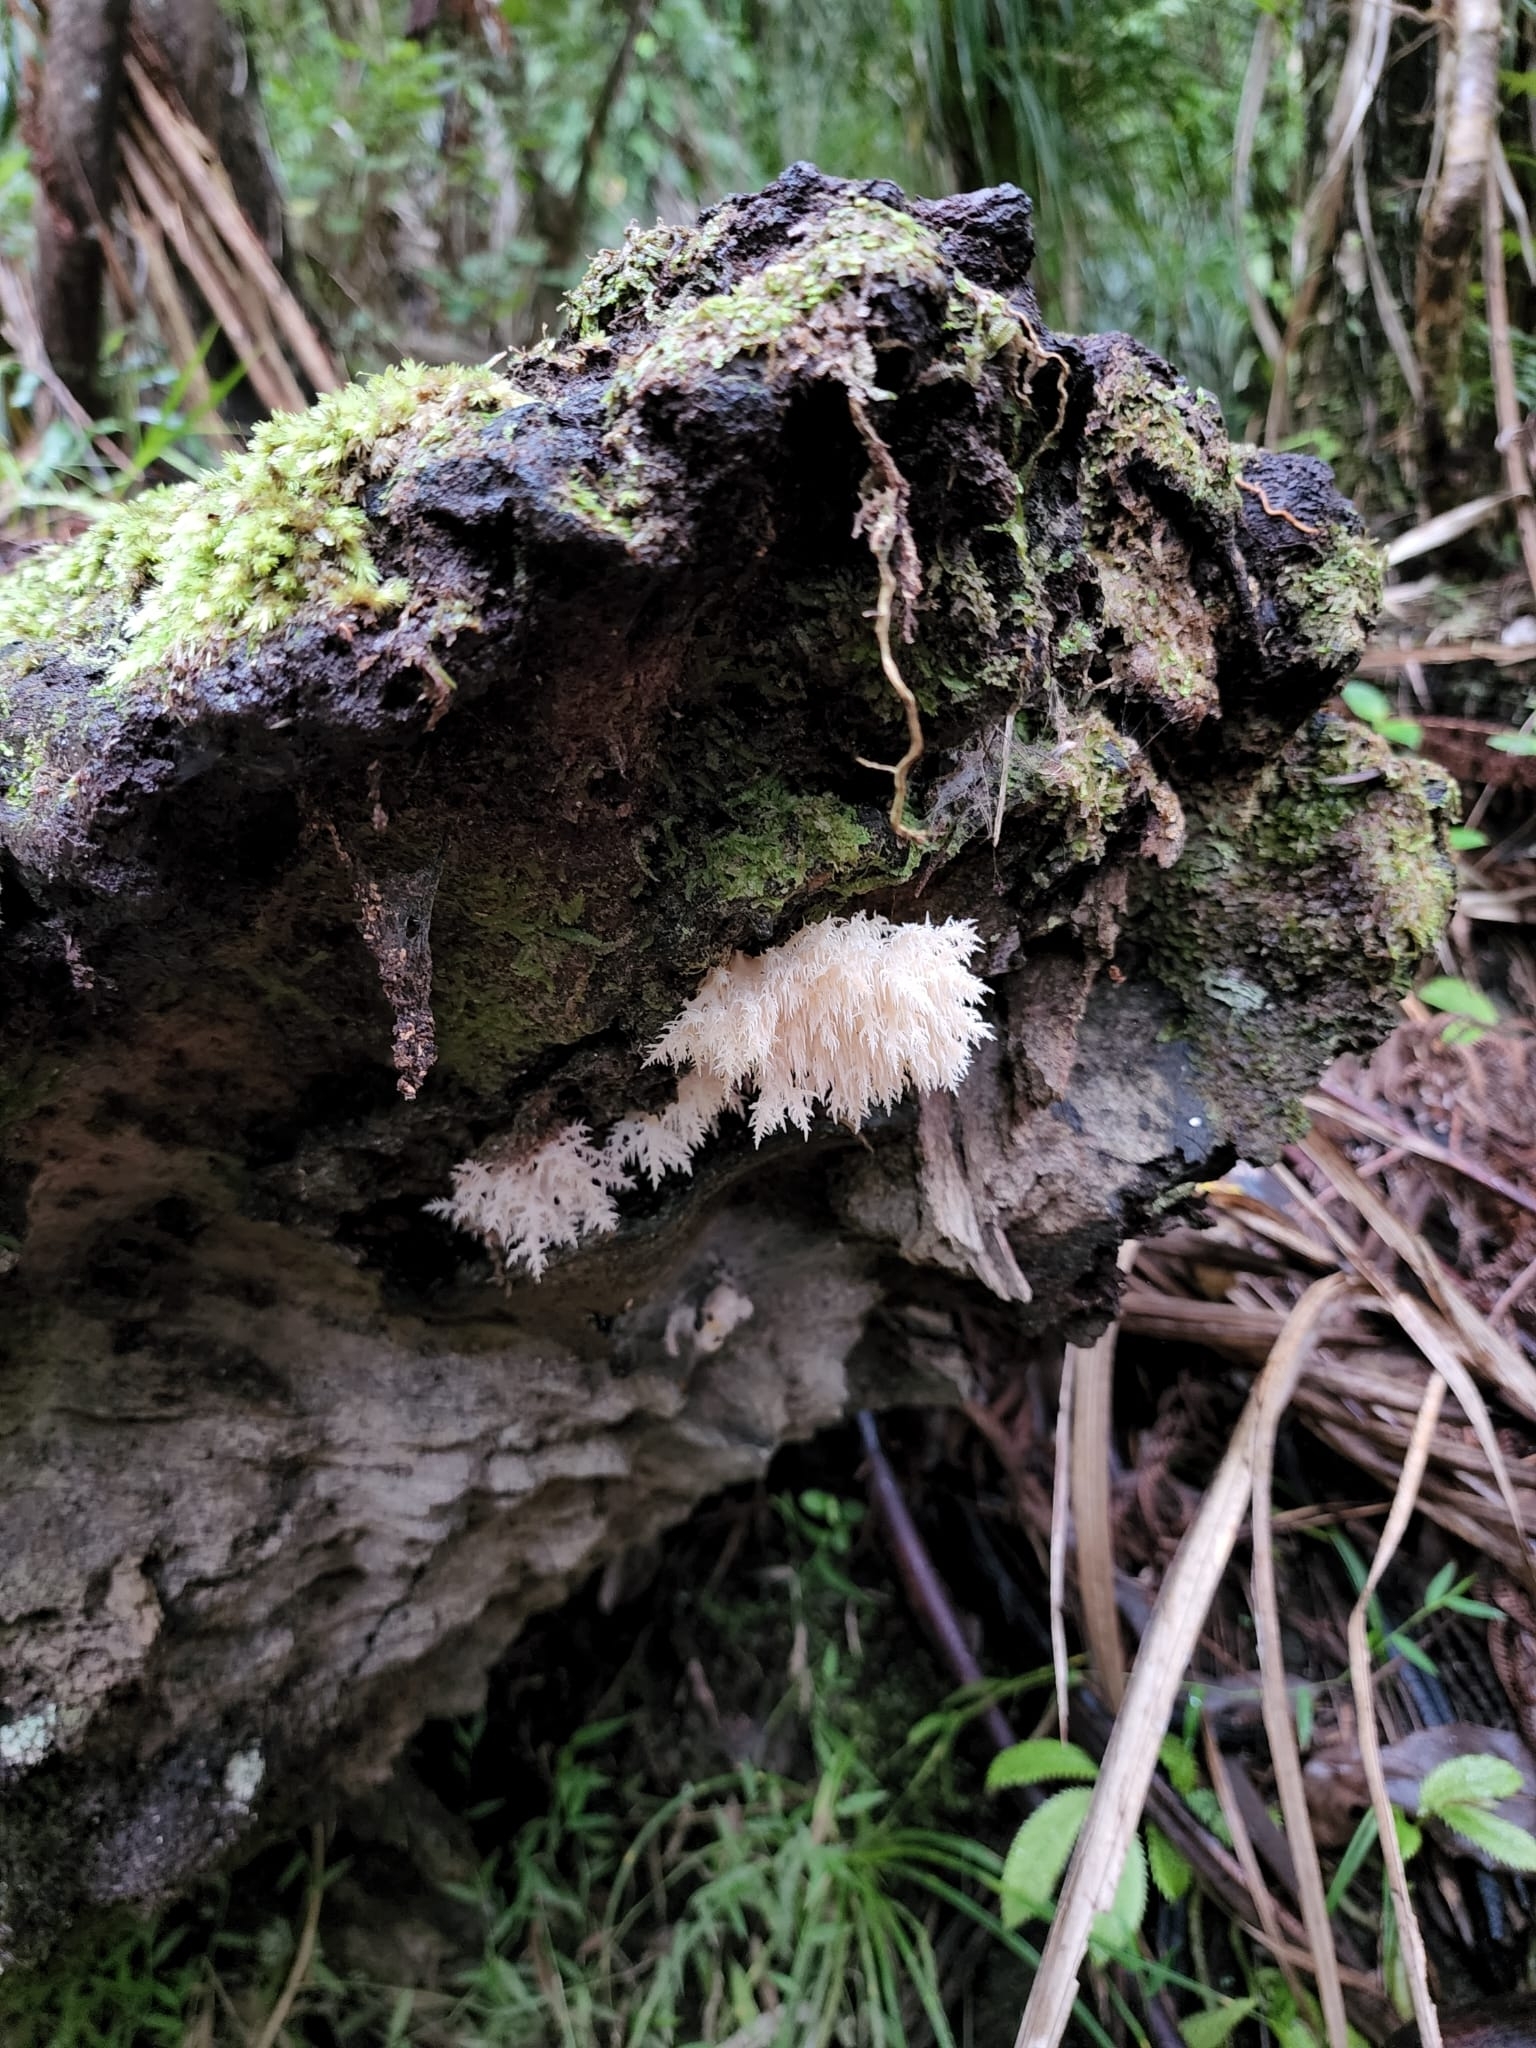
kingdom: Fungi
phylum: Basidiomycota
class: Agaricomycetes
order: Russulales
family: Hericiaceae
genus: Hericium
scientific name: Hericium novae-zealandiae
